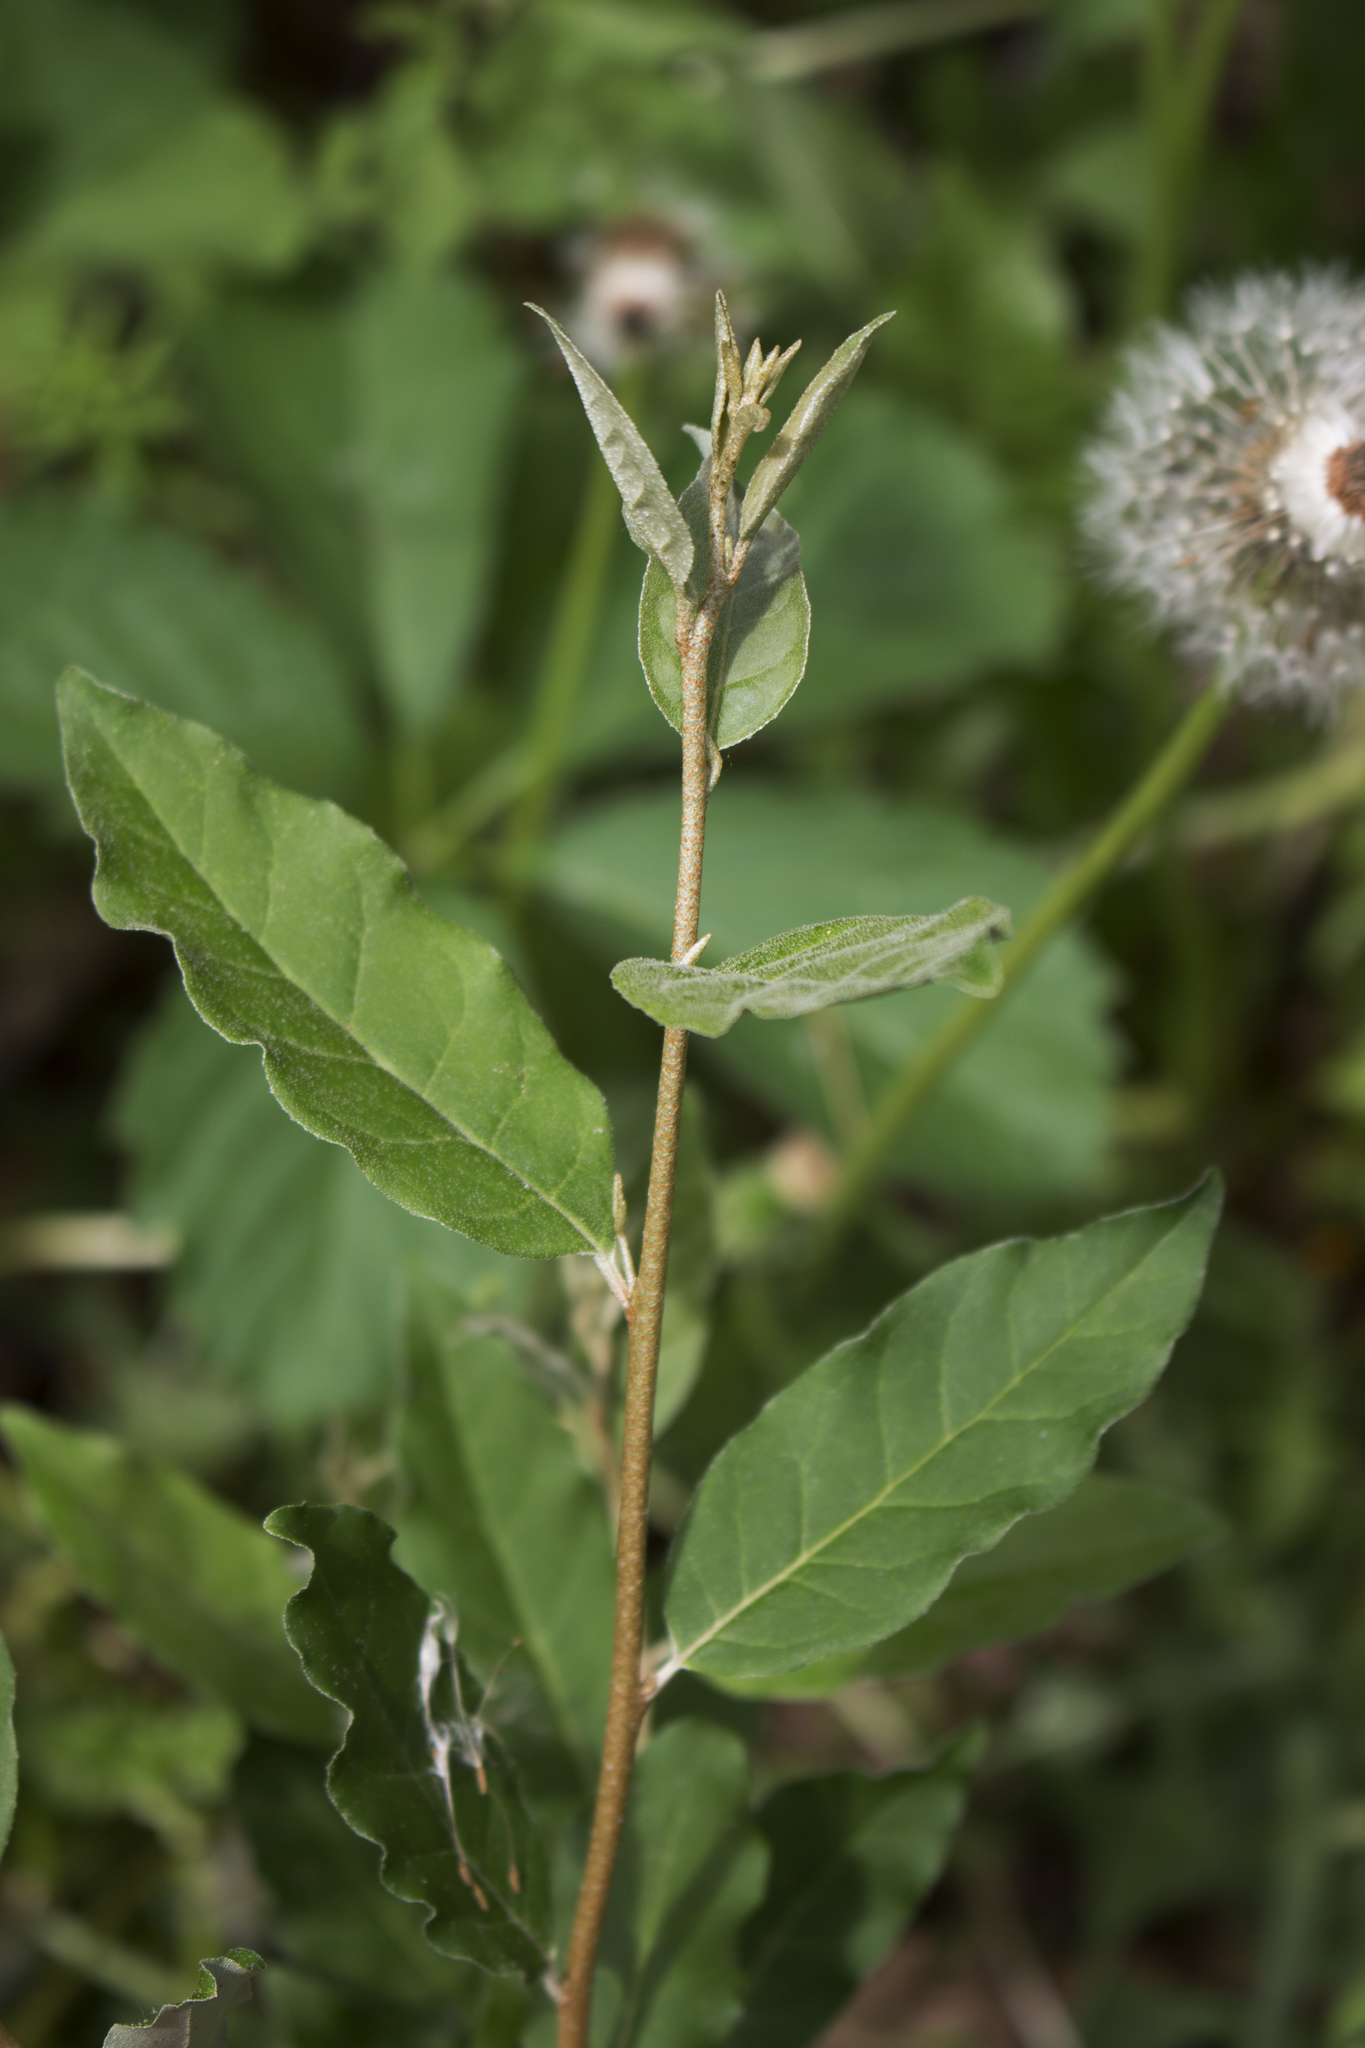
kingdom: Plantae
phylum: Tracheophyta
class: Magnoliopsida
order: Rosales
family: Elaeagnaceae
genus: Elaeagnus
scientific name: Elaeagnus umbellata
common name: Autumn olive
